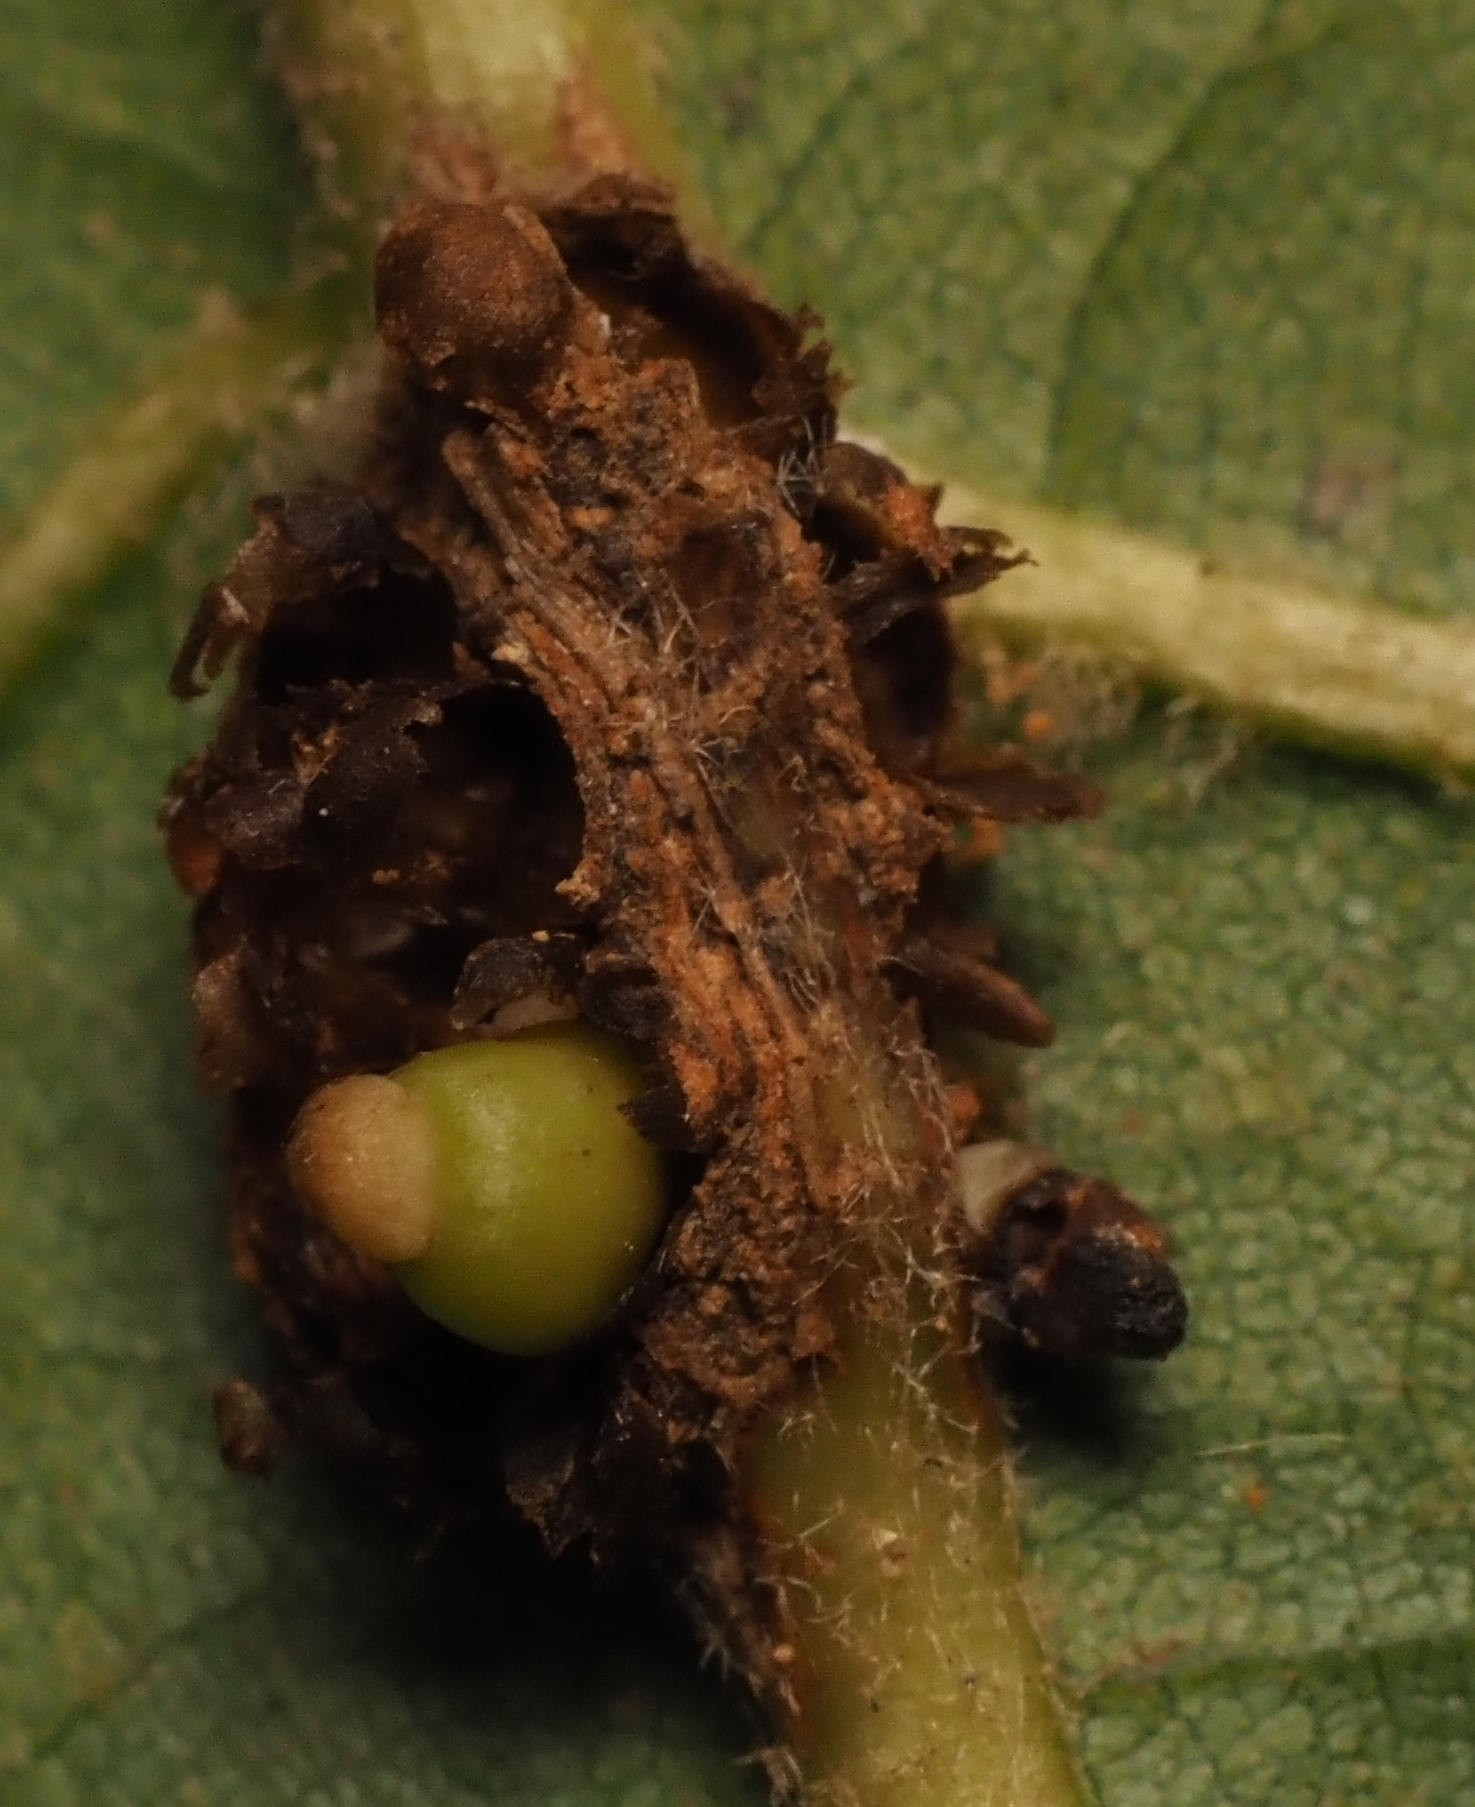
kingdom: Animalia
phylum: Arthropoda
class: Insecta
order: Hymenoptera
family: Cynipidae
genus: Kokkocynips
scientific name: Kokkocynips decidua
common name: Oak wheat gall
